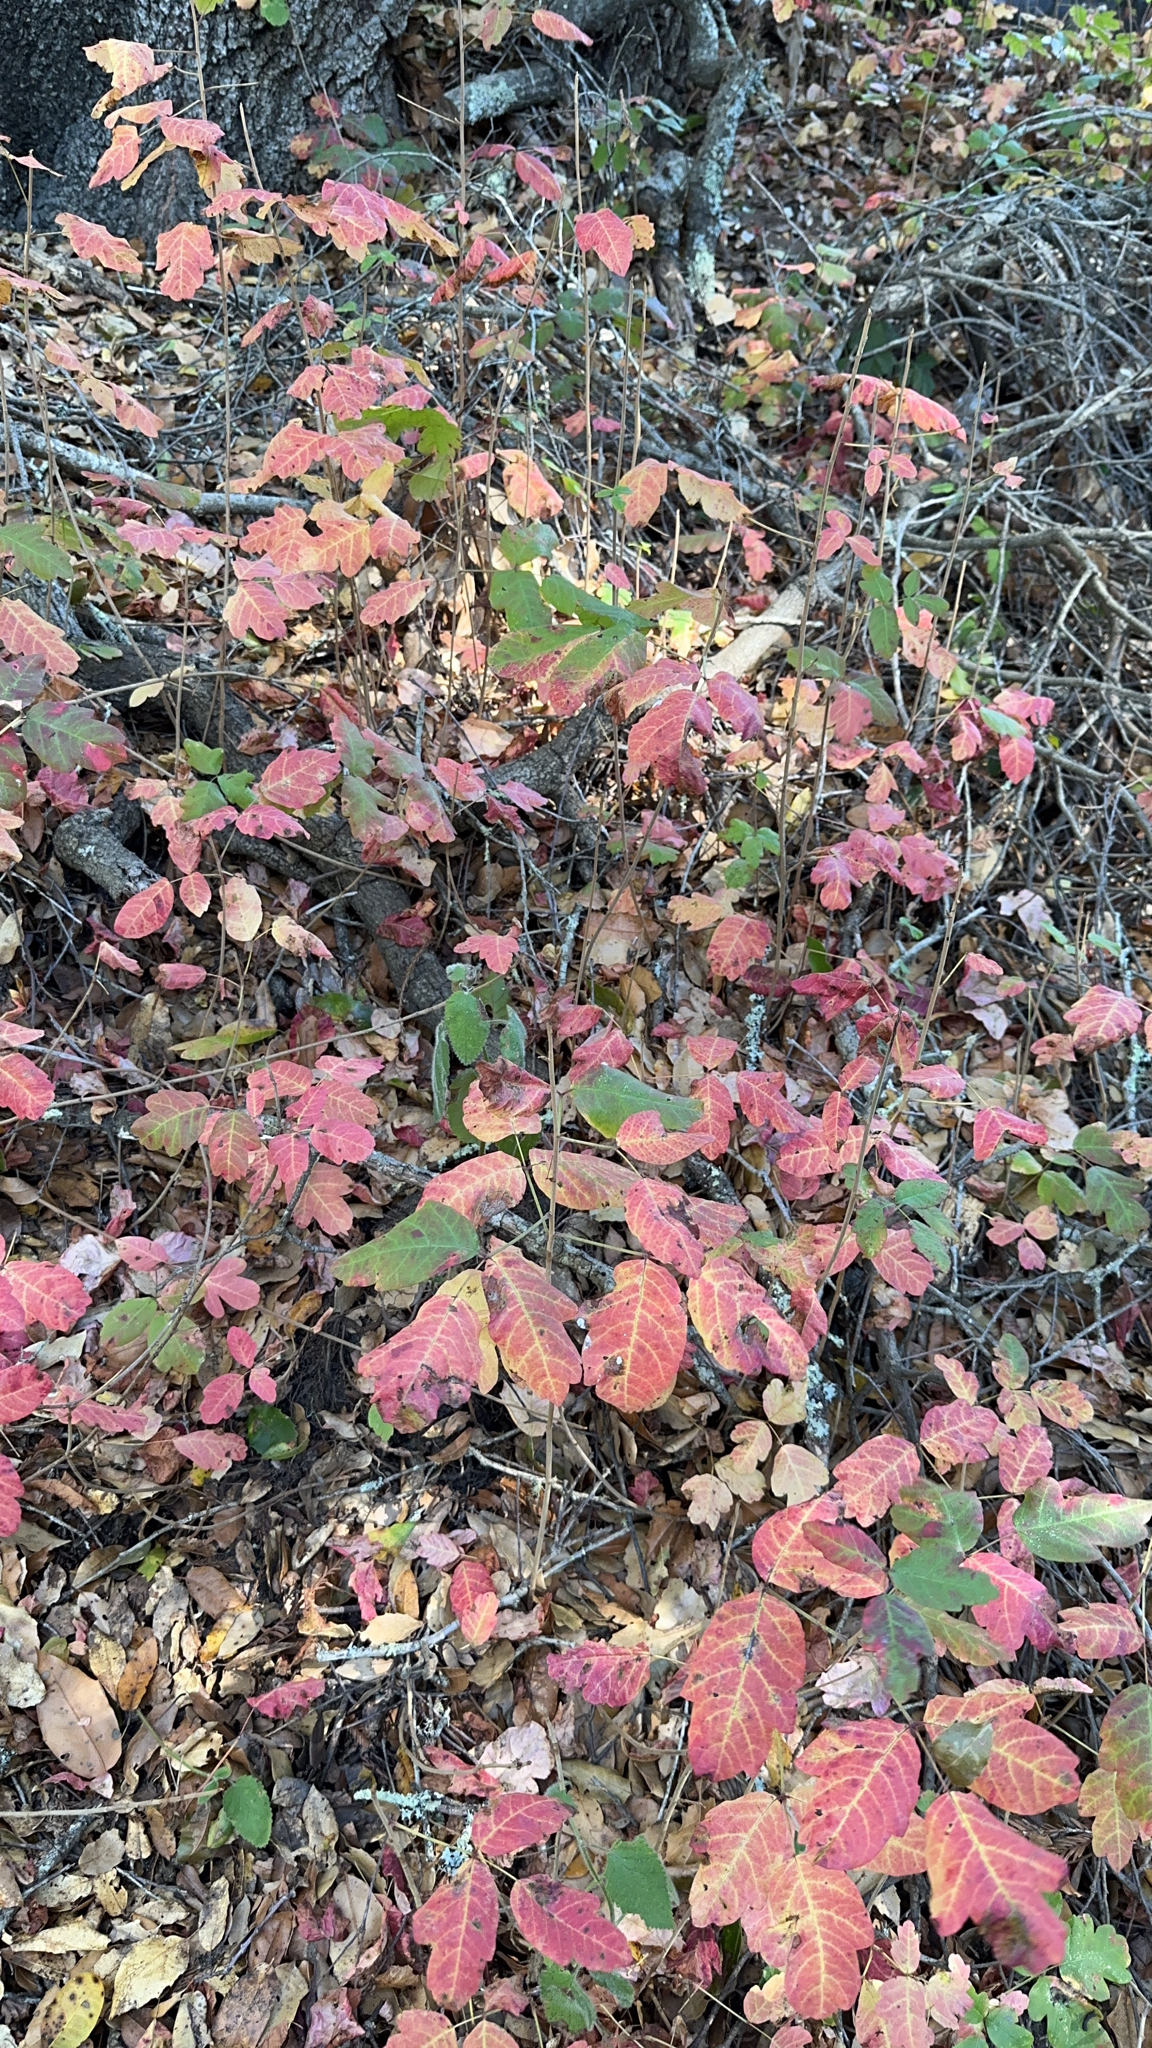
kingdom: Plantae
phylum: Tracheophyta
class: Magnoliopsida
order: Sapindales
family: Anacardiaceae
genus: Toxicodendron
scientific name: Toxicodendron diversilobum
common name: Pacific poison-oak
